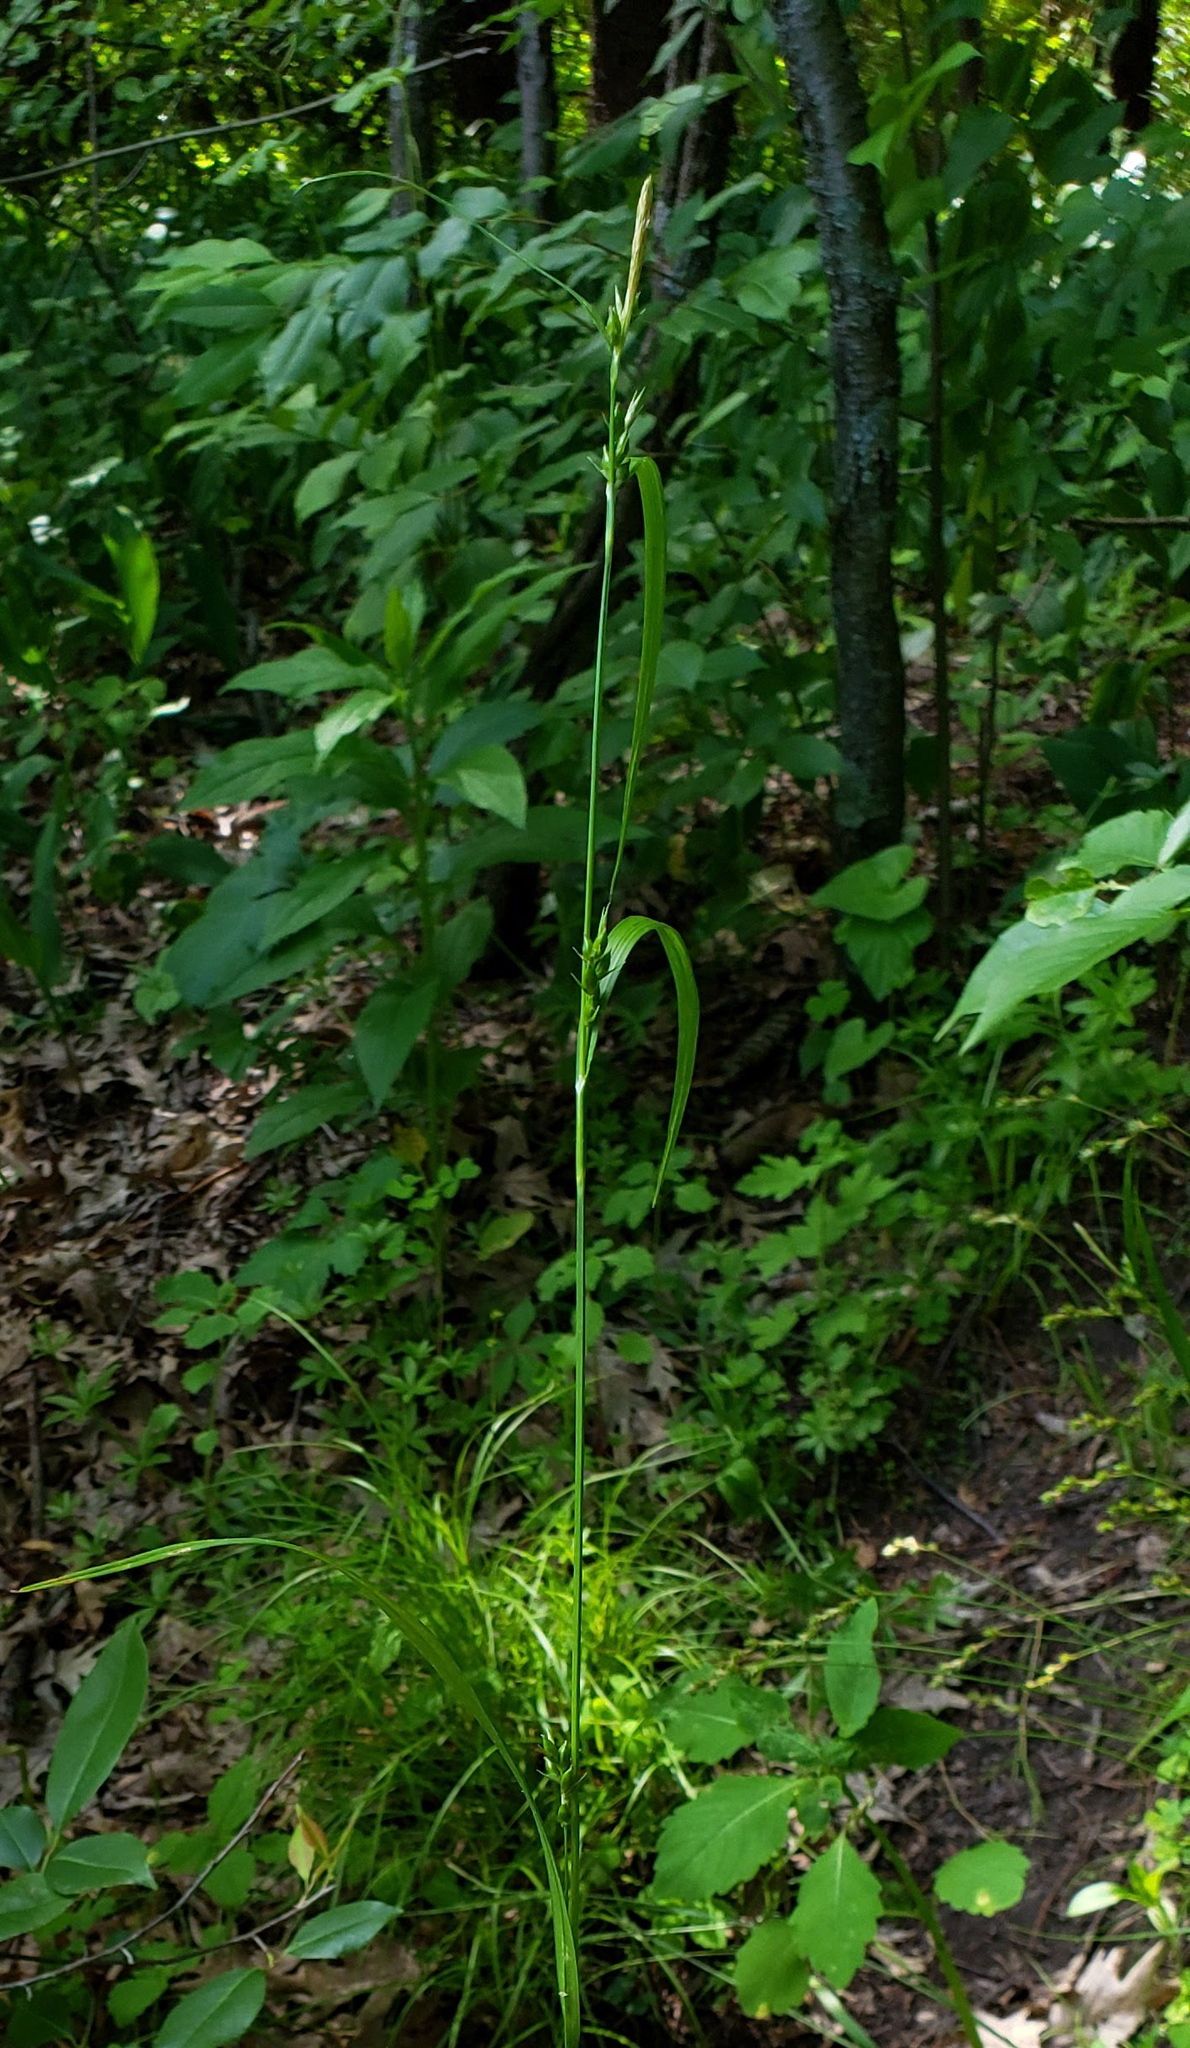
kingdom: Plantae
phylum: Tracheophyta
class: Liliopsida
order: Poales
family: Cyperaceae
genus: Carex
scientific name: Carex grisea
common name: Eastern narrow-leaved sedge
